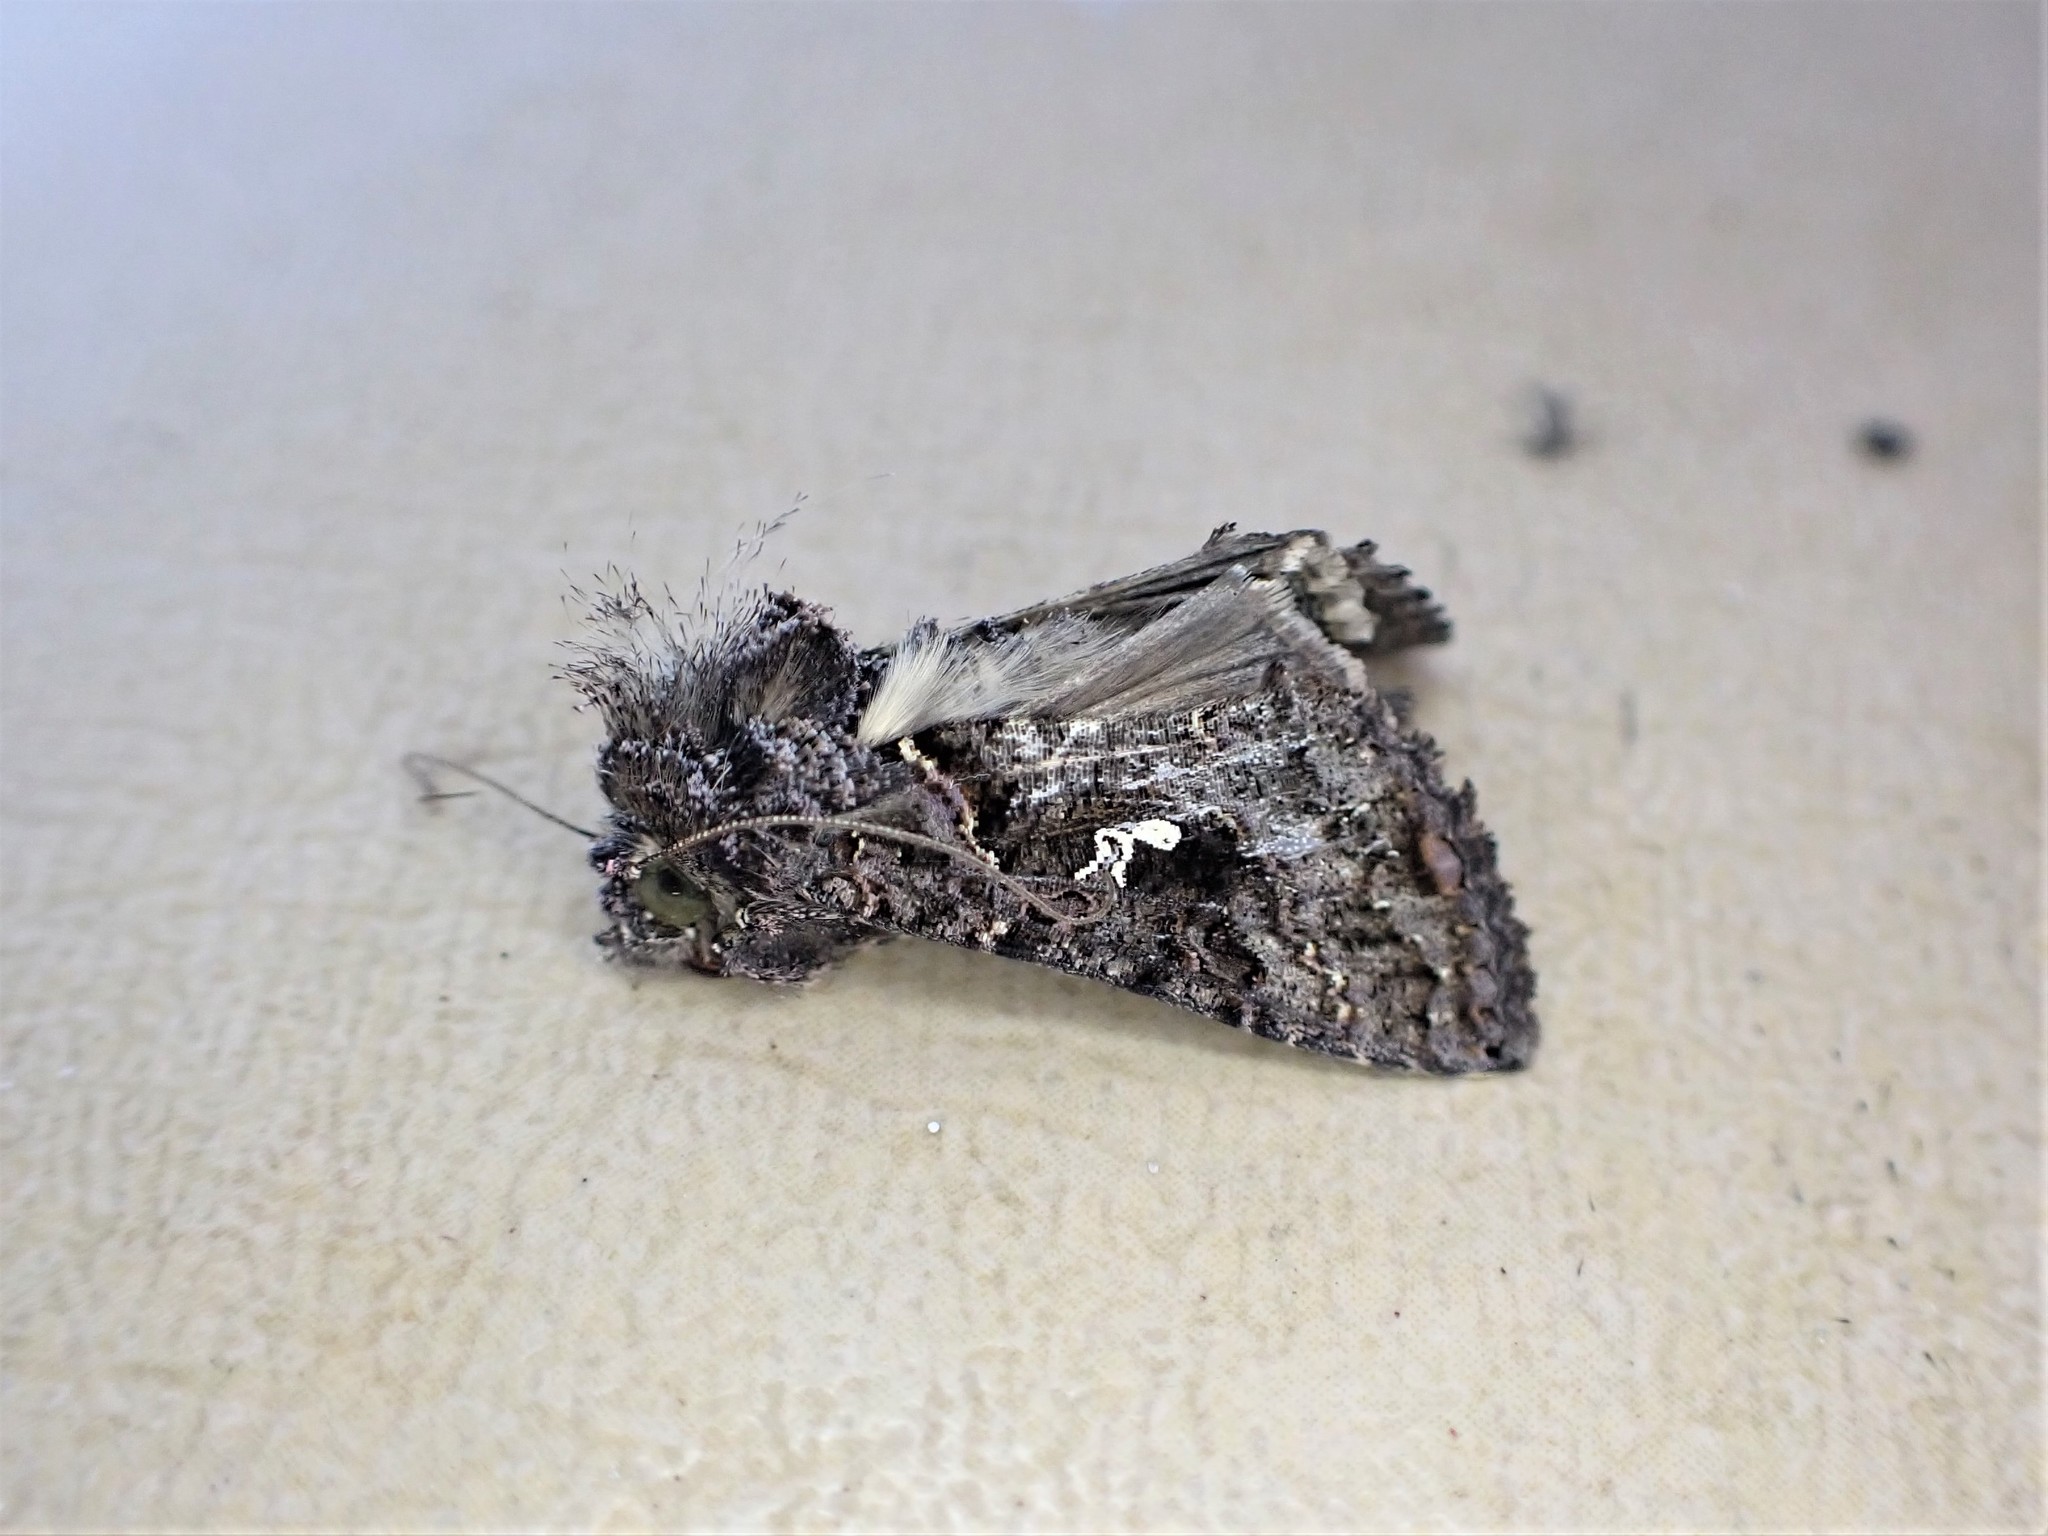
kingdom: Animalia
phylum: Arthropoda
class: Insecta
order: Lepidoptera
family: Noctuidae
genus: Ctenoplusia
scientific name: Ctenoplusia limbirena
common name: Scar bank gem
